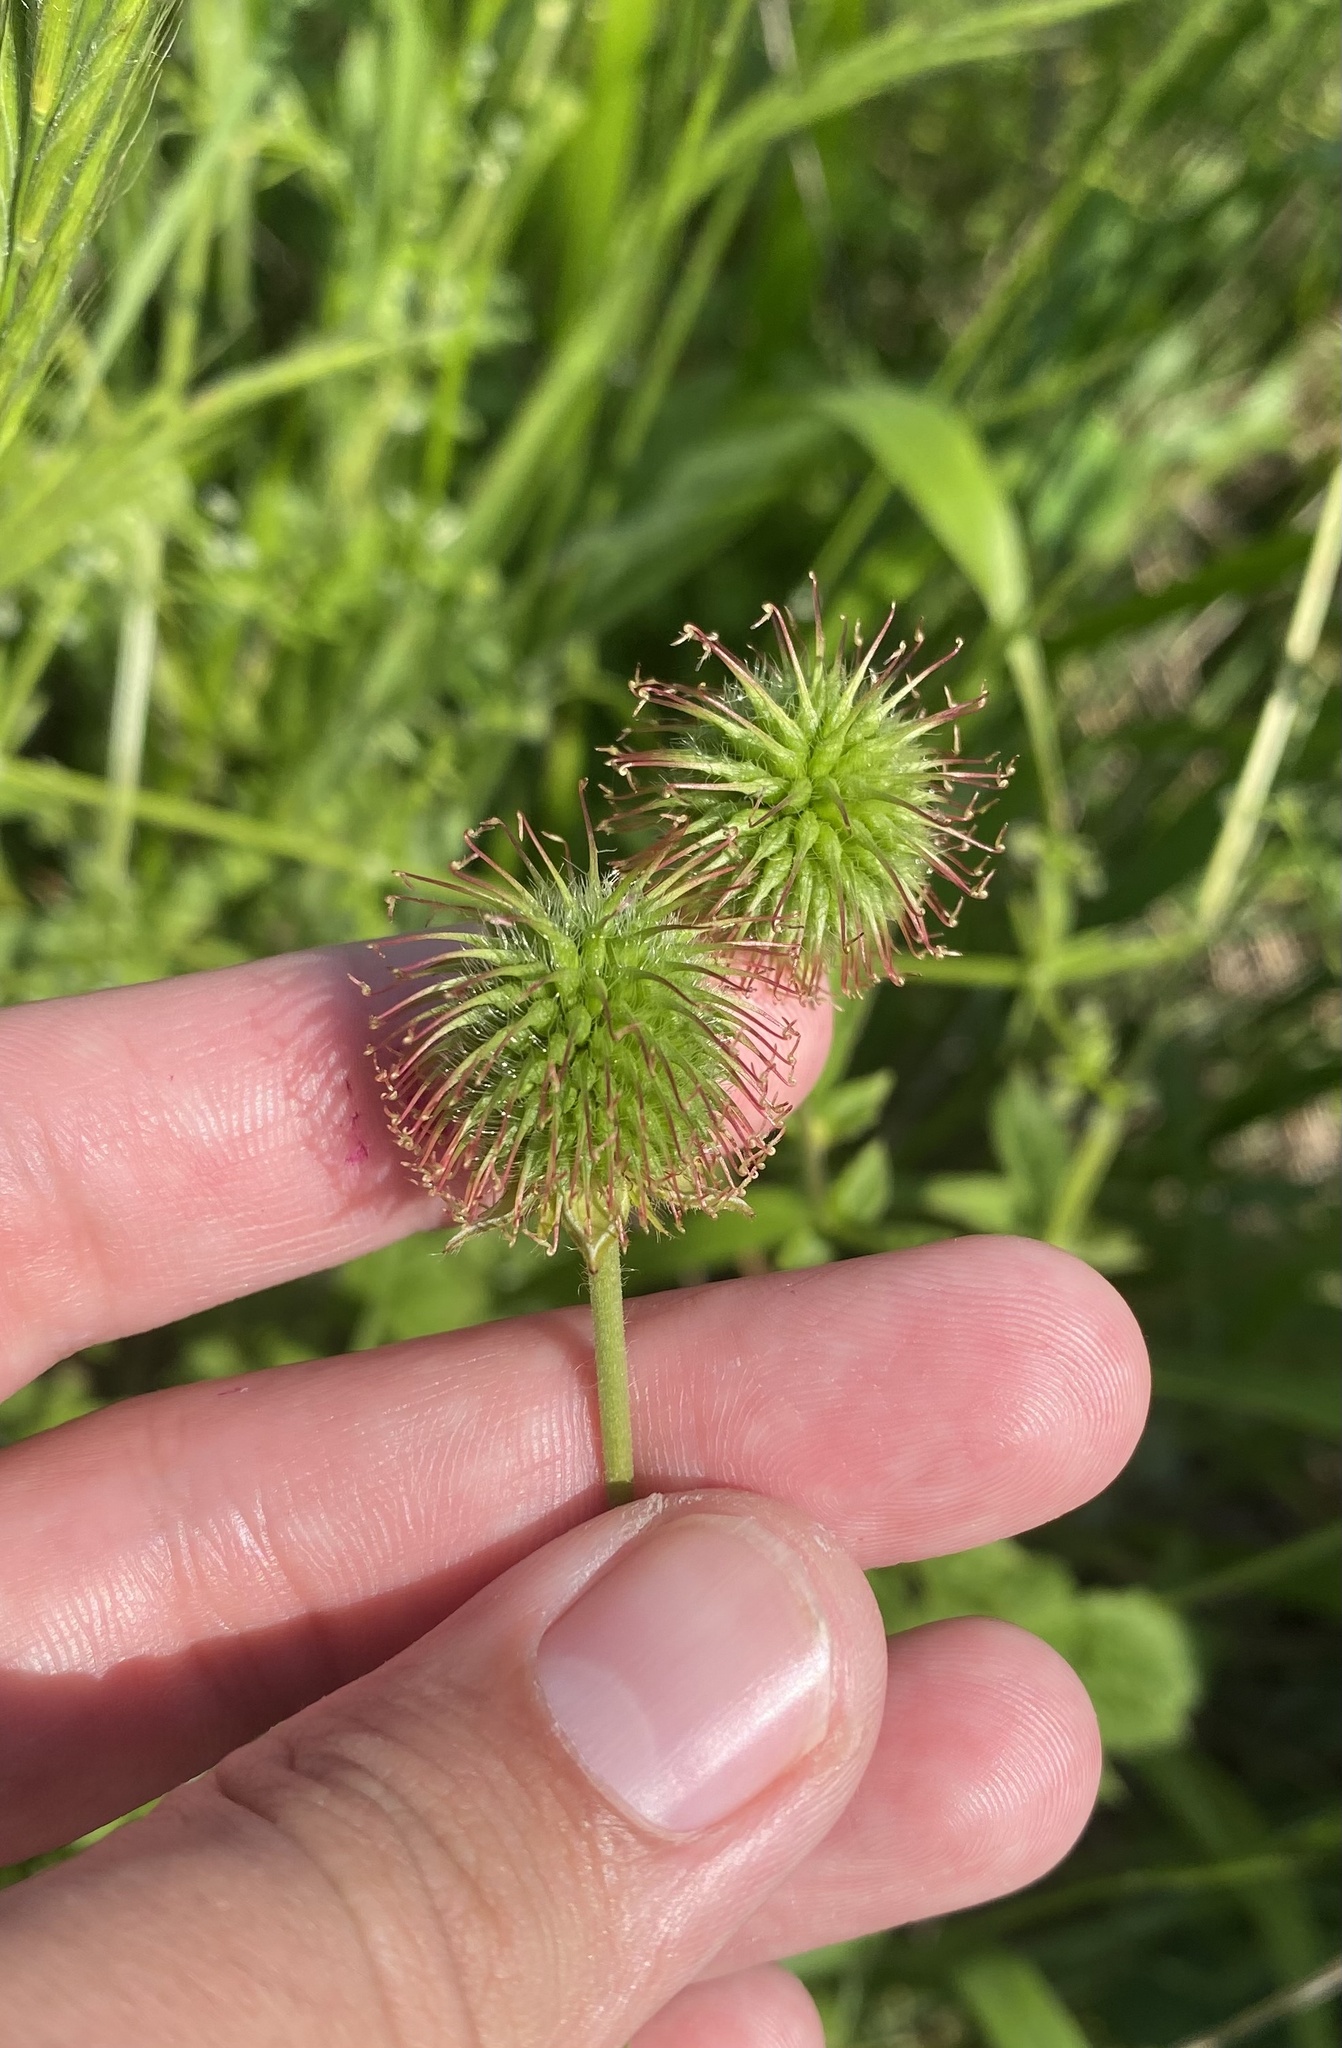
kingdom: Plantae
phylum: Tracheophyta
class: Magnoliopsida
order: Rosales
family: Rosaceae
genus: Geum
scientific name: Geum urbanum
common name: Wood avens
